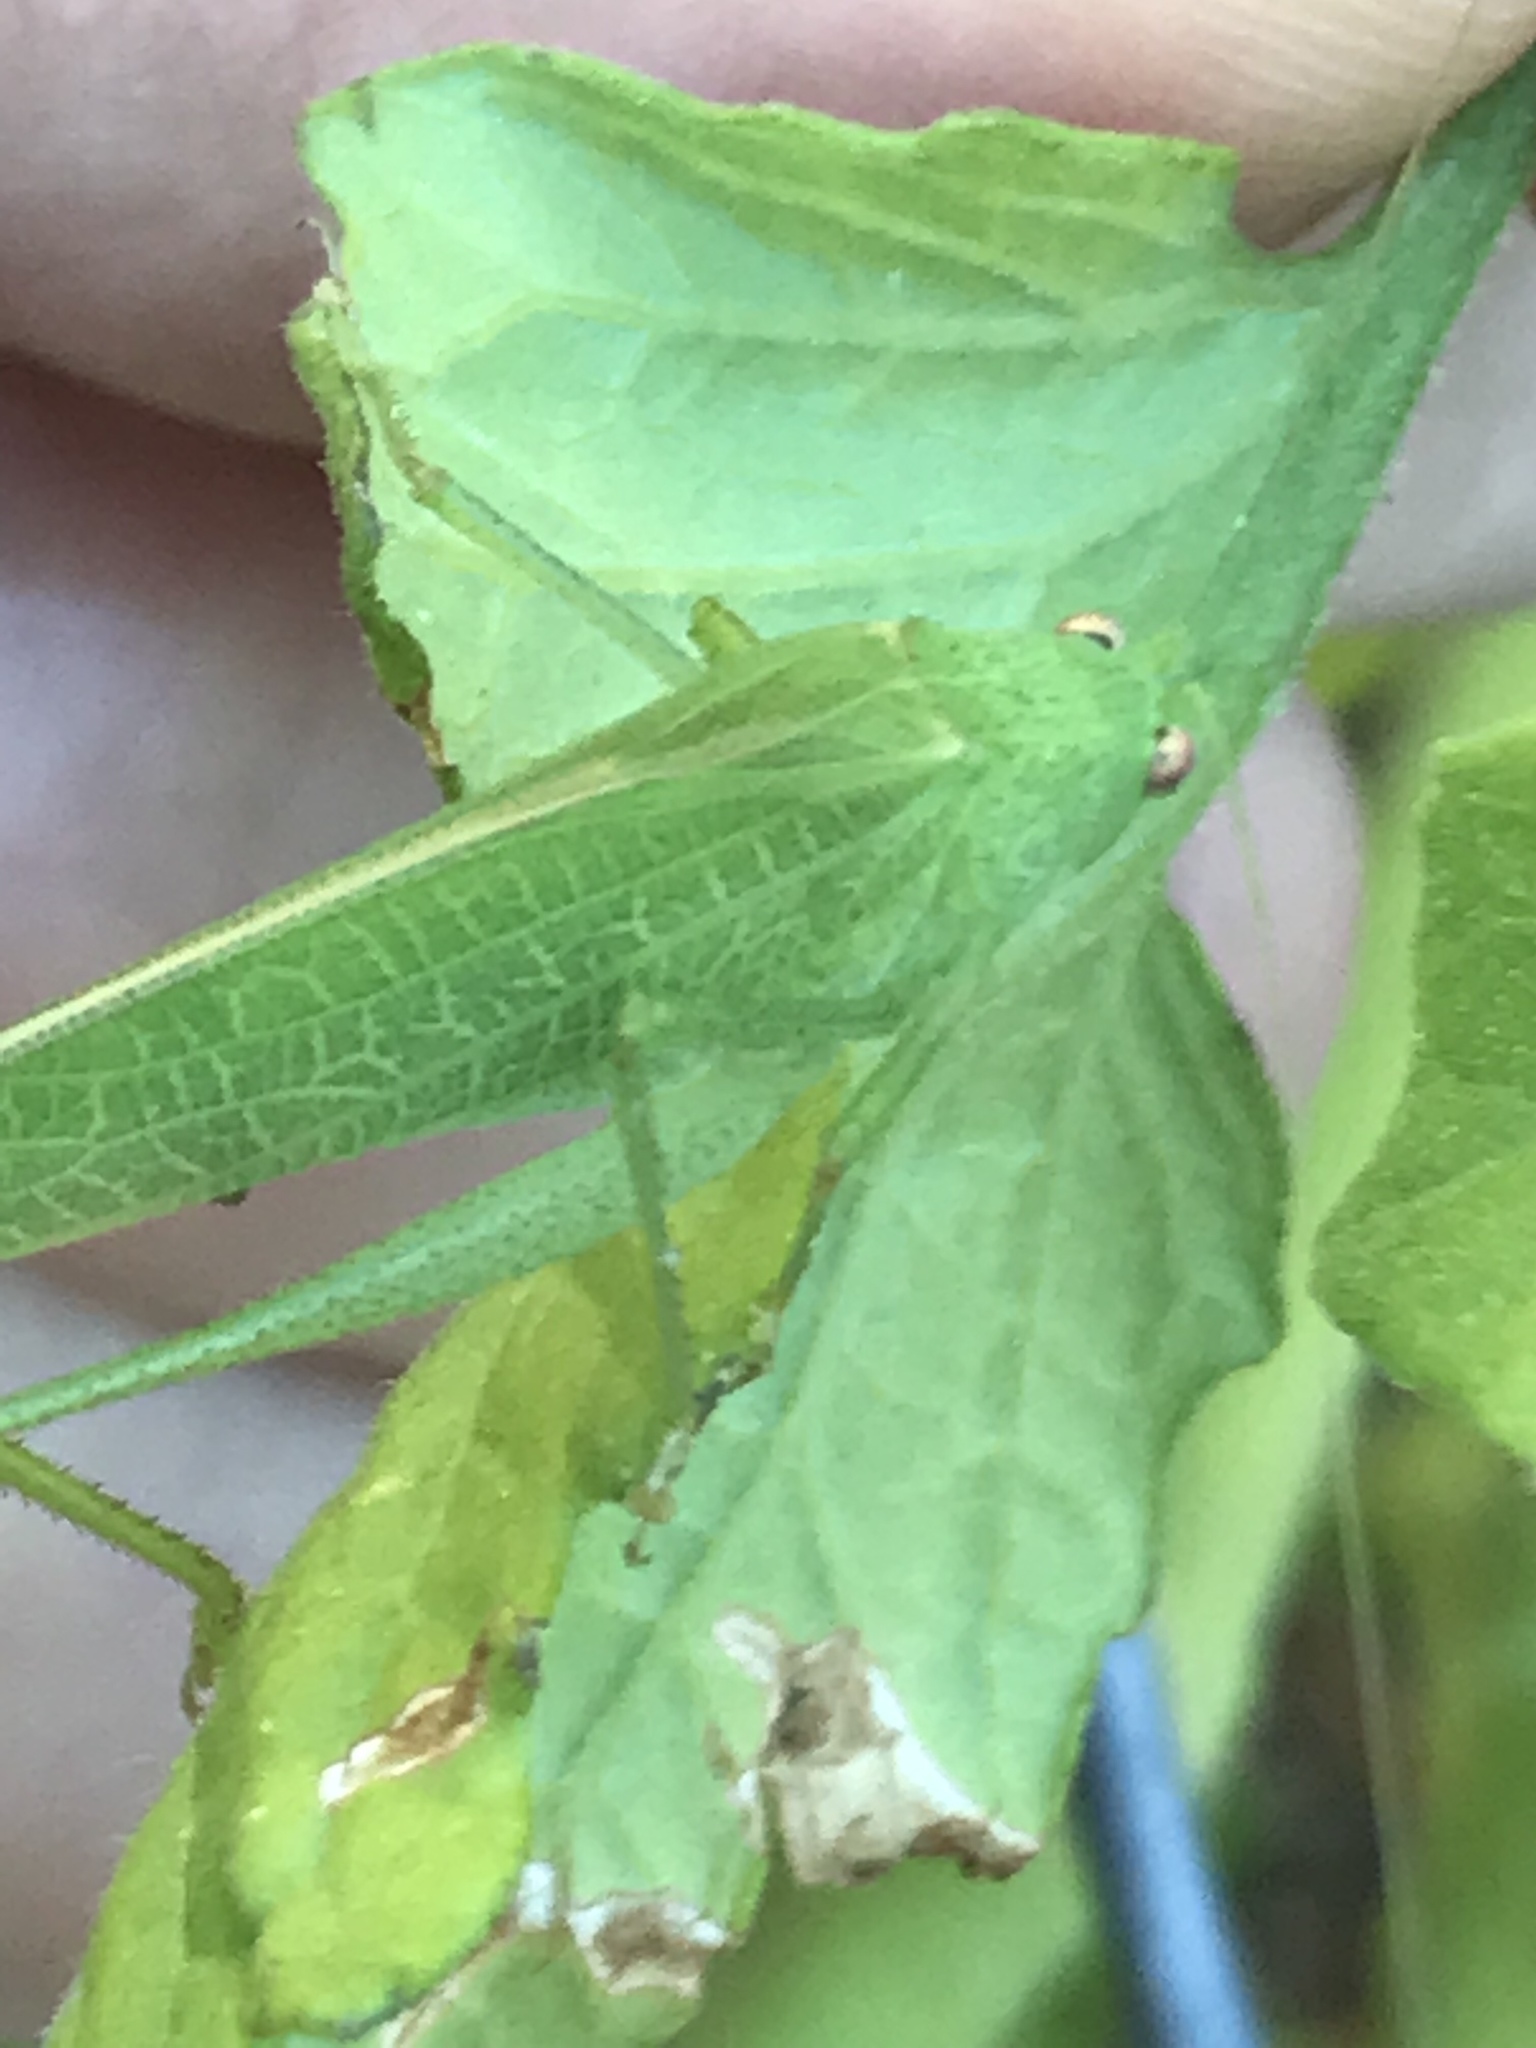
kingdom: Animalia
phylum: Arthropoda
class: Insecta
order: Orthoptera
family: Tettigoniidae
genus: Phaneroptera
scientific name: Phaneroptera nana
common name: Southern sickle bush-cricket
